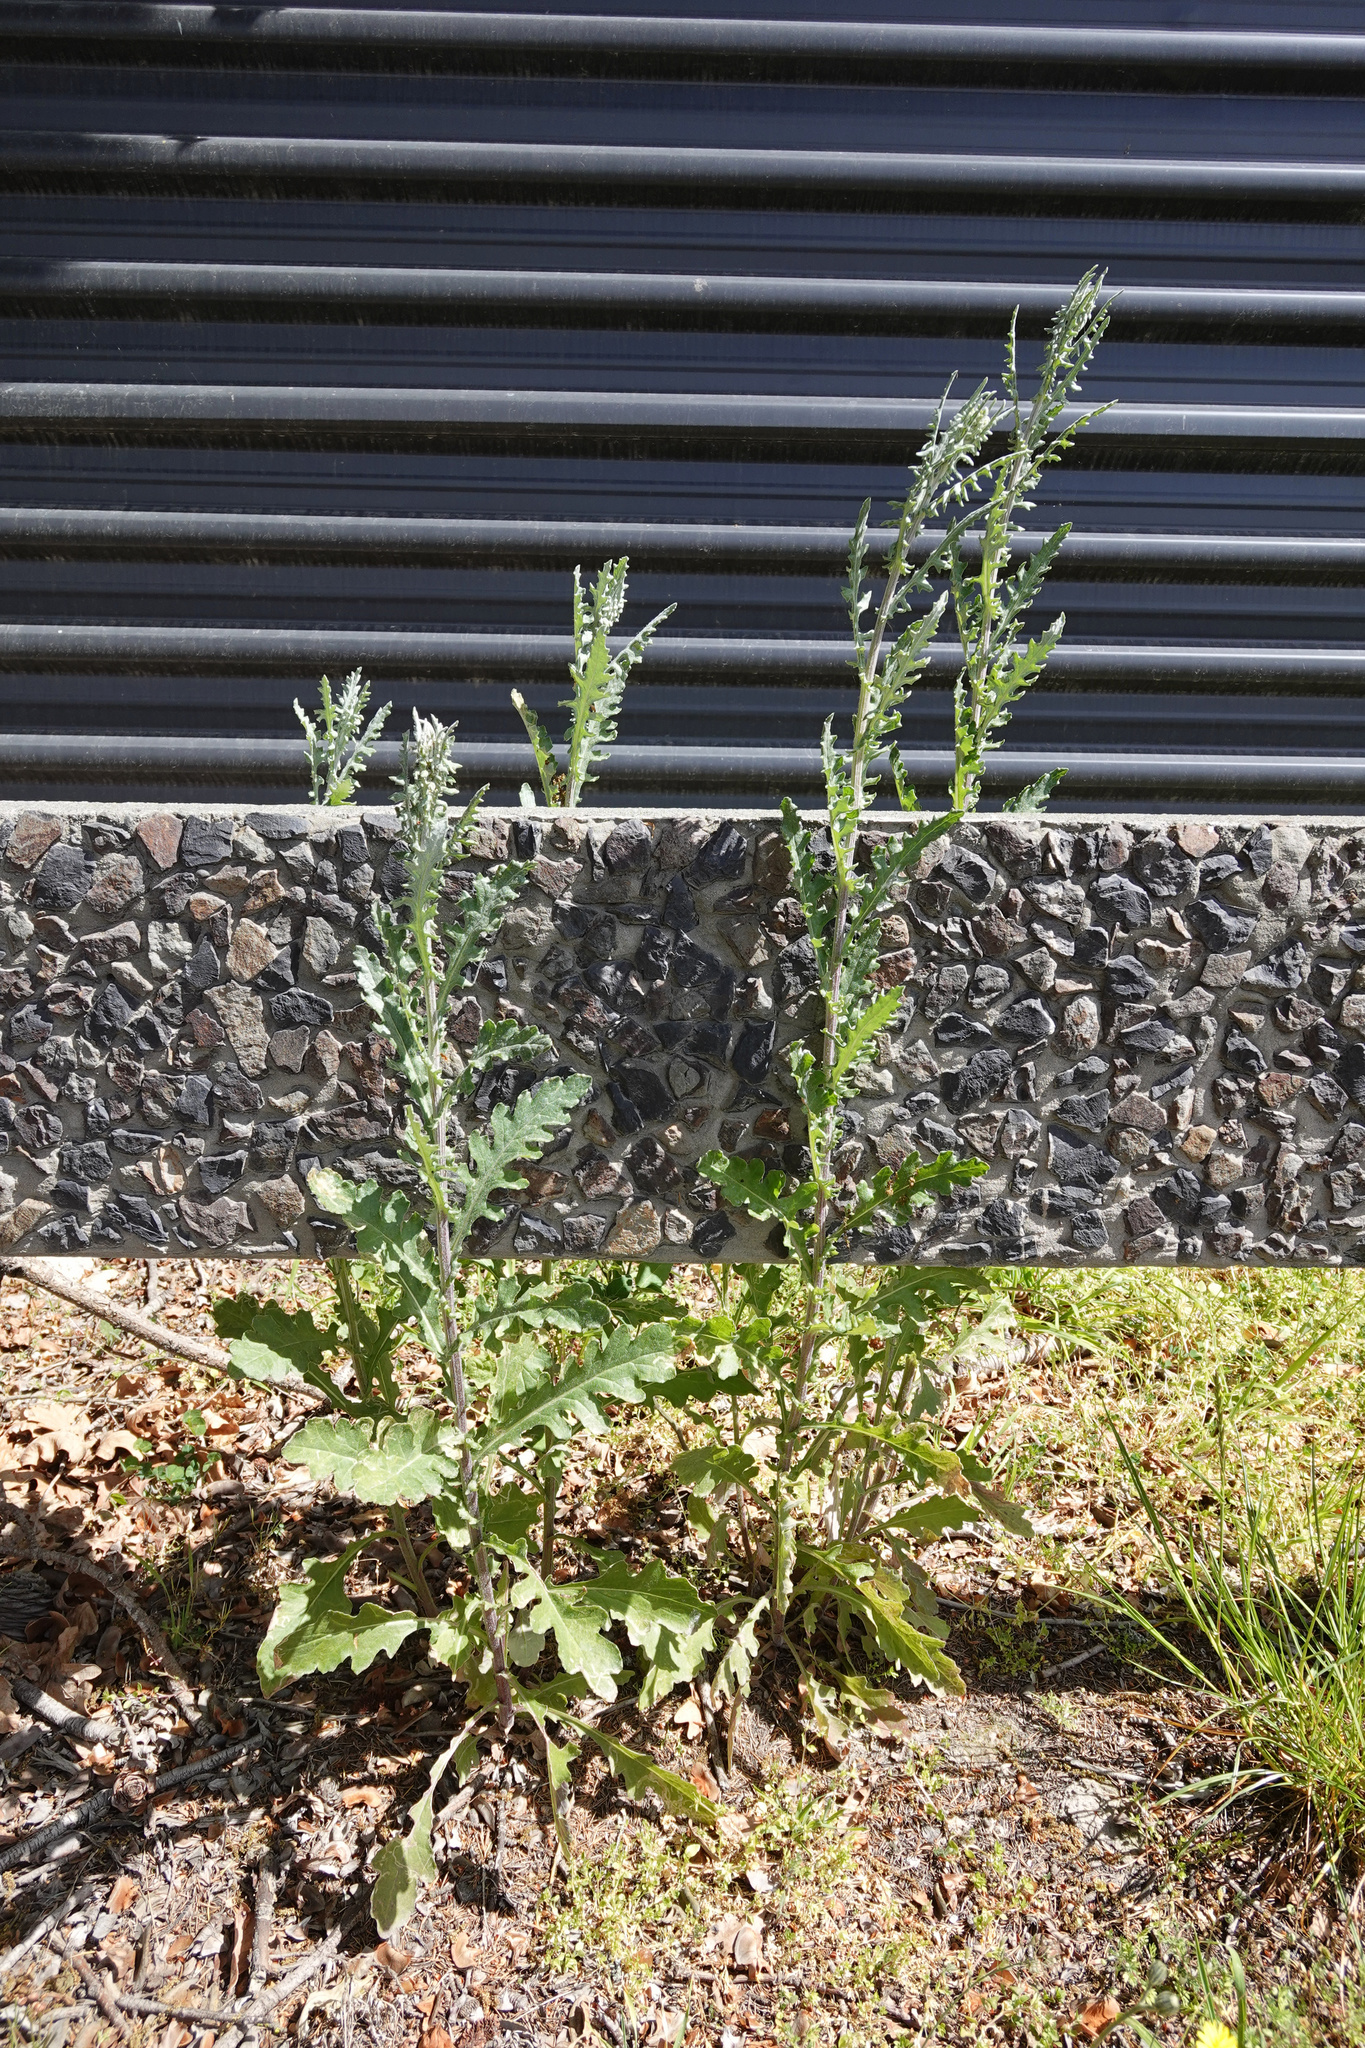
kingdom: Plantae
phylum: Tracheophyta
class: Magnoliopsida
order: Asterales
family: Asteraceae
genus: Senecio
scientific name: Senecio glomeratus
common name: Cutleaf burnweed
